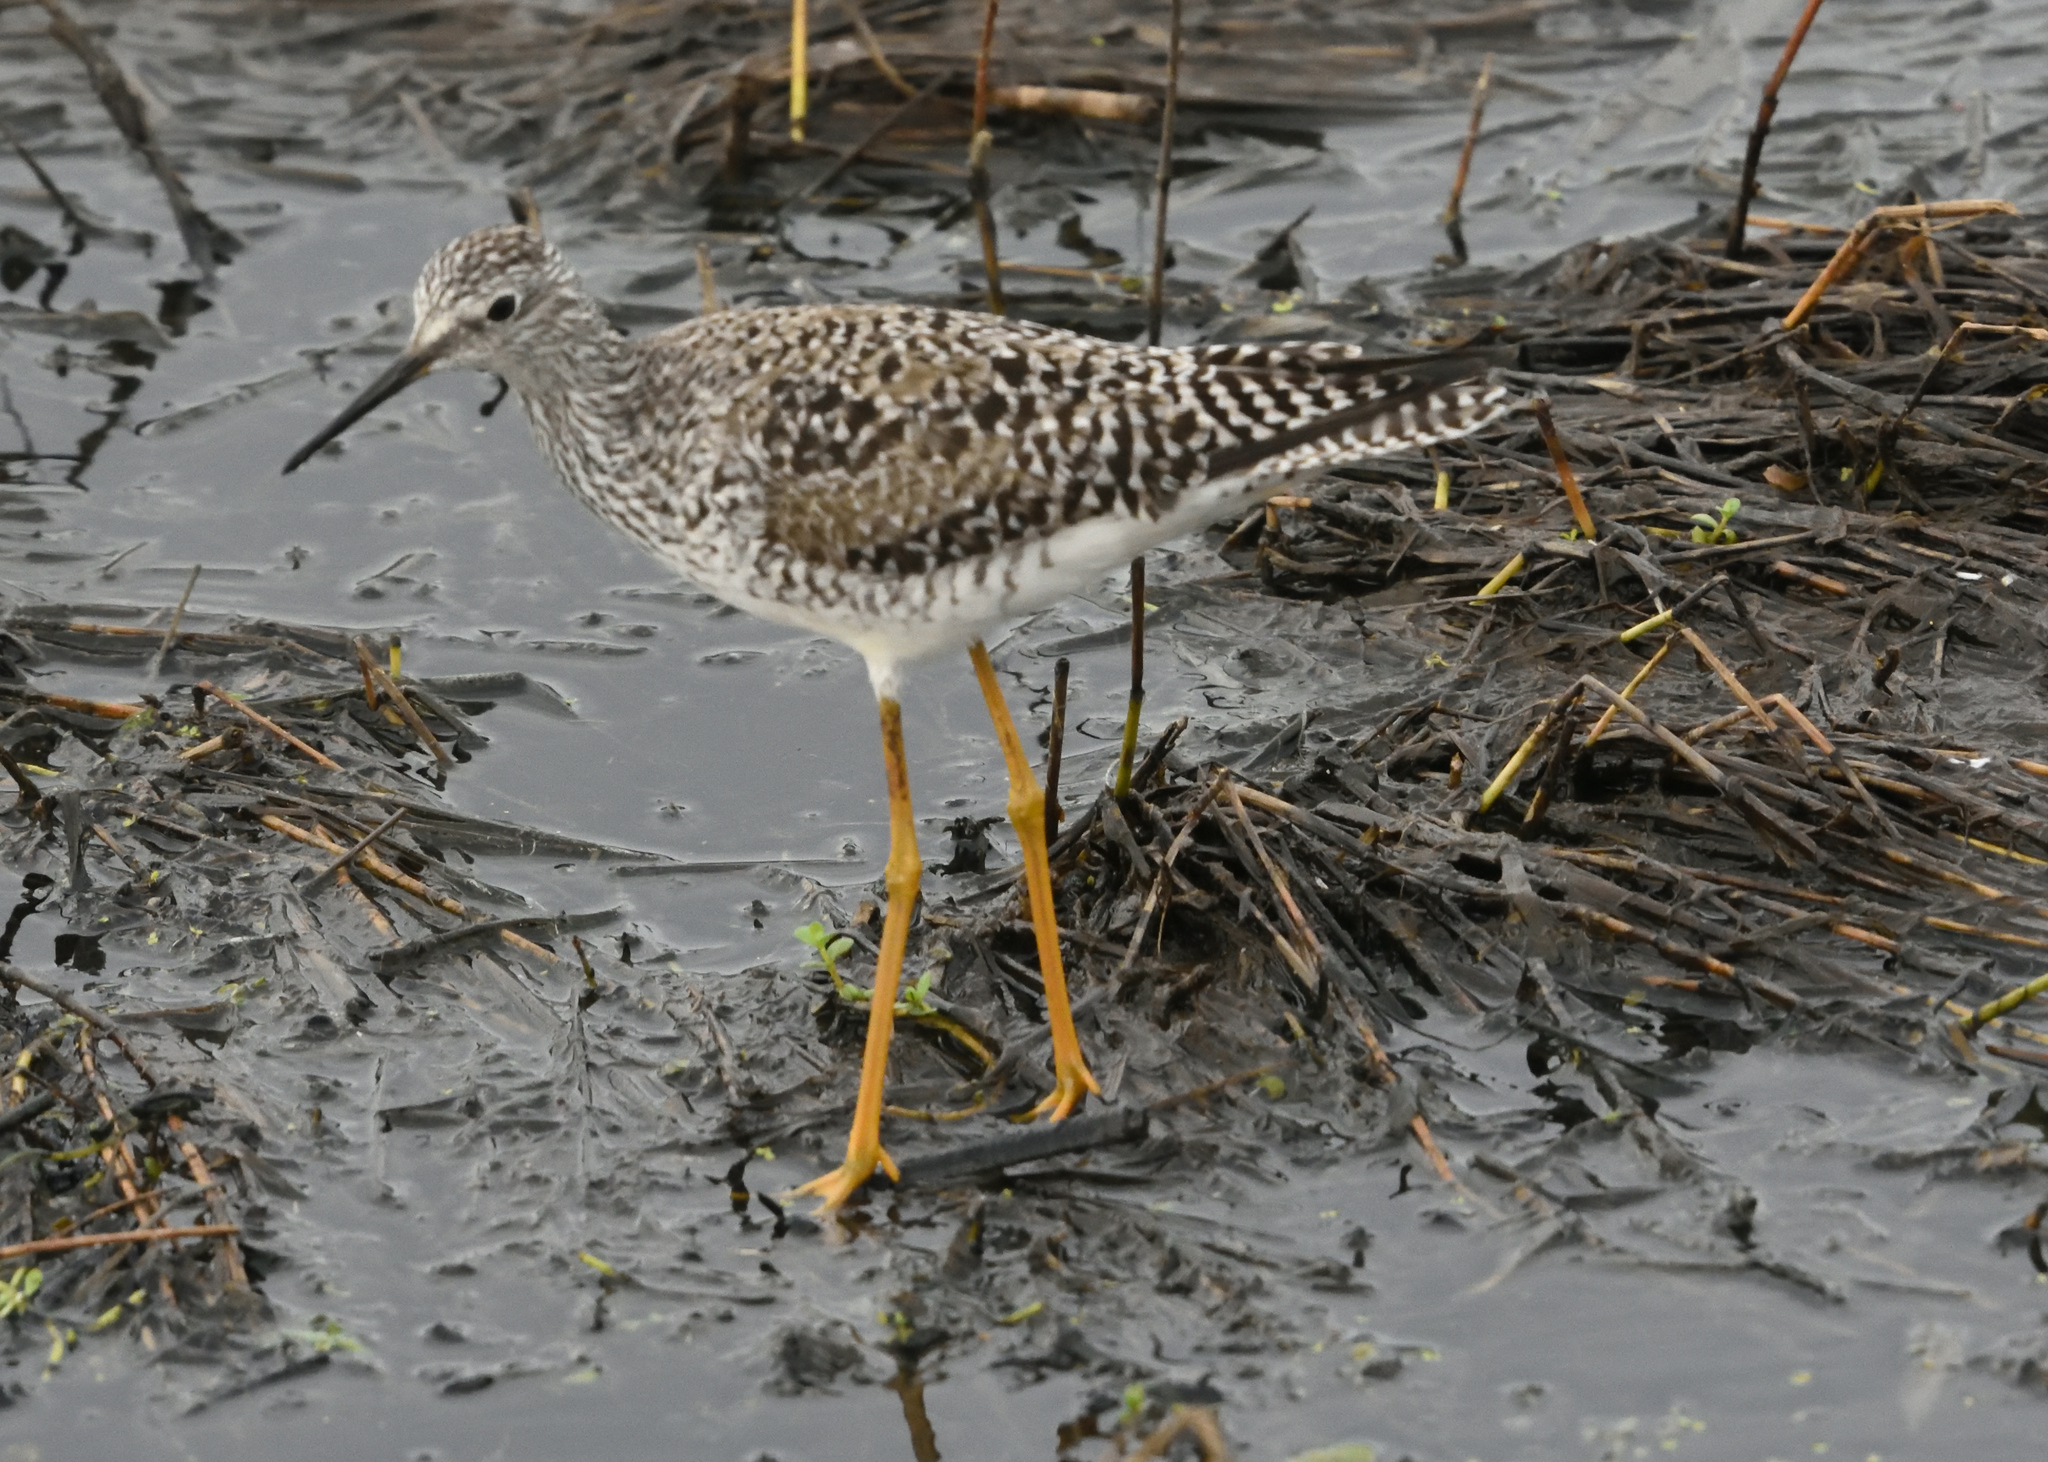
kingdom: Animalia
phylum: Chordata
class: Aves
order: Charadriiformes
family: Scolopacidae
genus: Tringa
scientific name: Tringa flavipes
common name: Lesser yellowlegs
